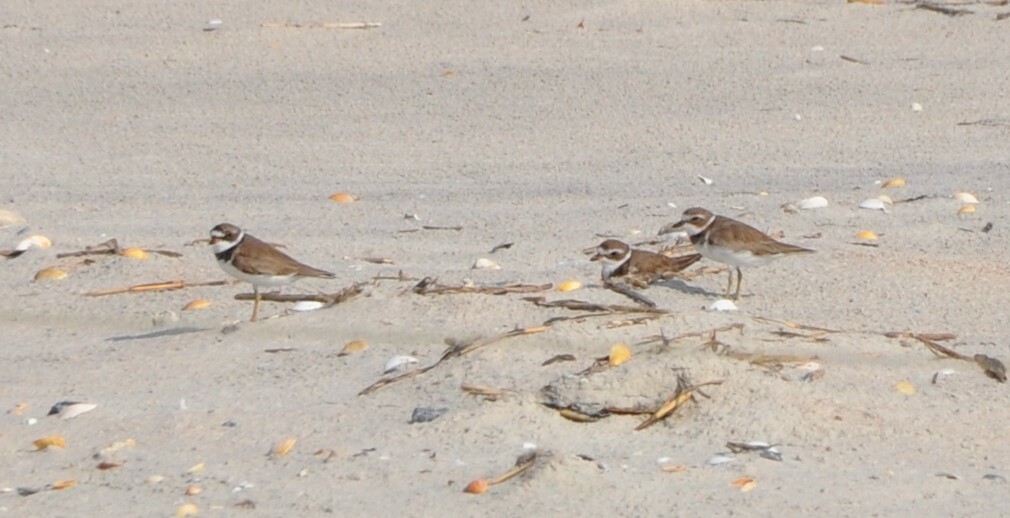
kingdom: Animalia
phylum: Chordata
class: Aves
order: Charadriiformes
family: Charadriidae
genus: Charadrius
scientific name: Charadrius semipalmatus
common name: Semipalmated plover
